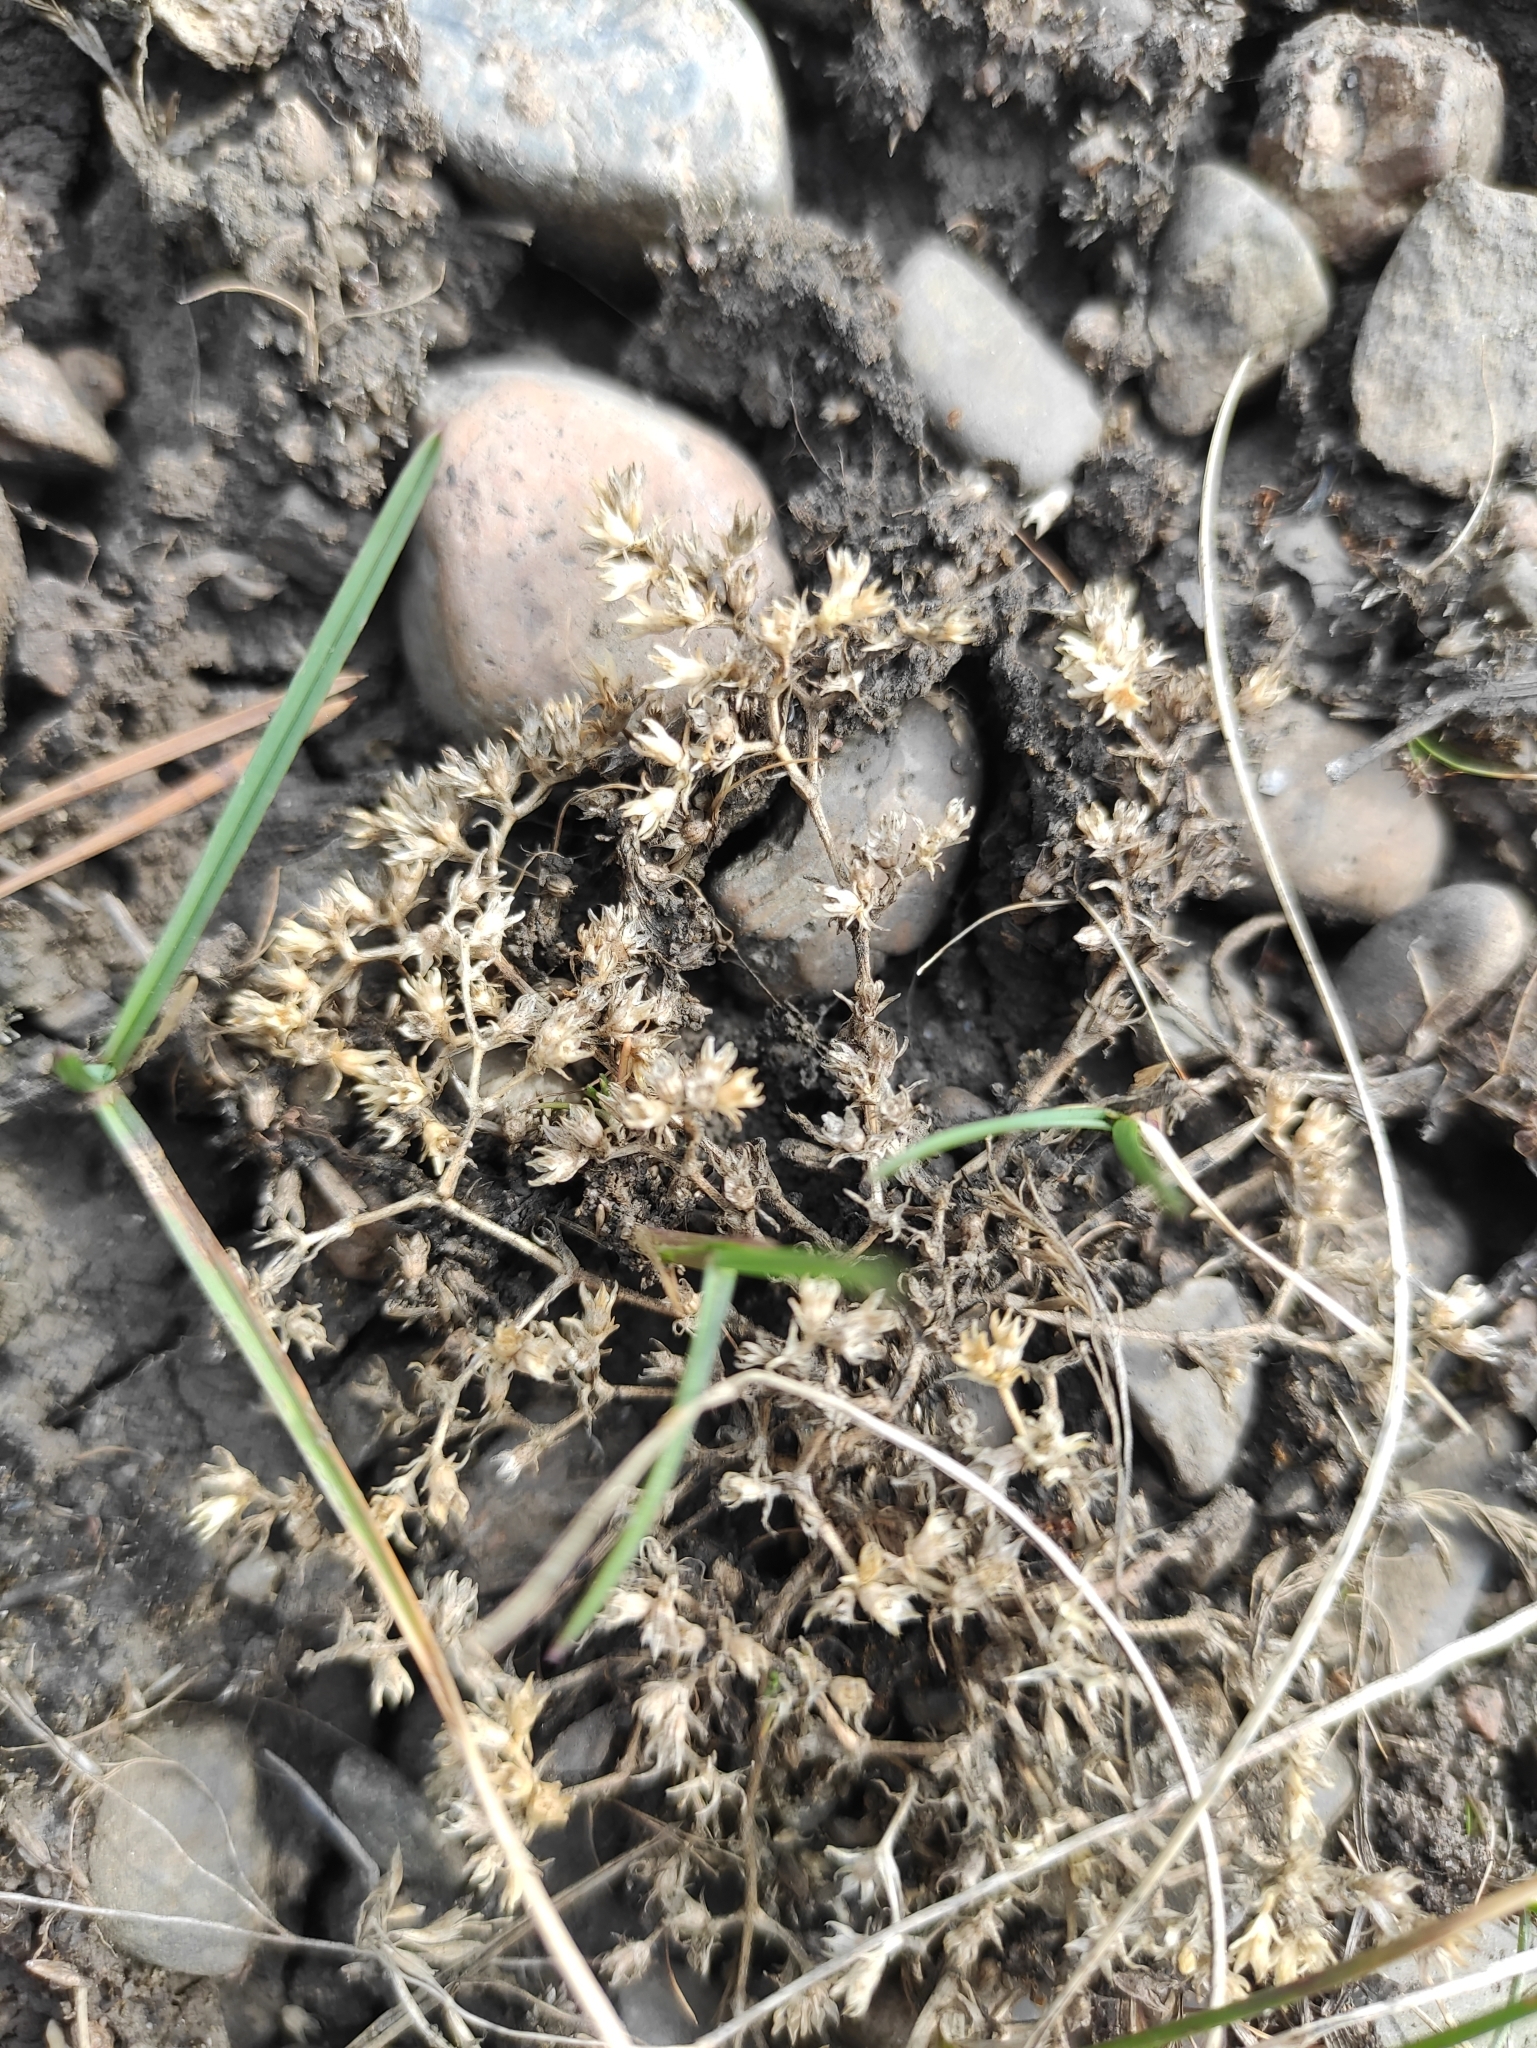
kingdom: Plantae
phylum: Tracheophyta
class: Magnoliopsida
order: Caryophyllales
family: Caryophyllaceae
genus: Scleranthus
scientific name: Scleranthus annuus
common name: Annual knawel
